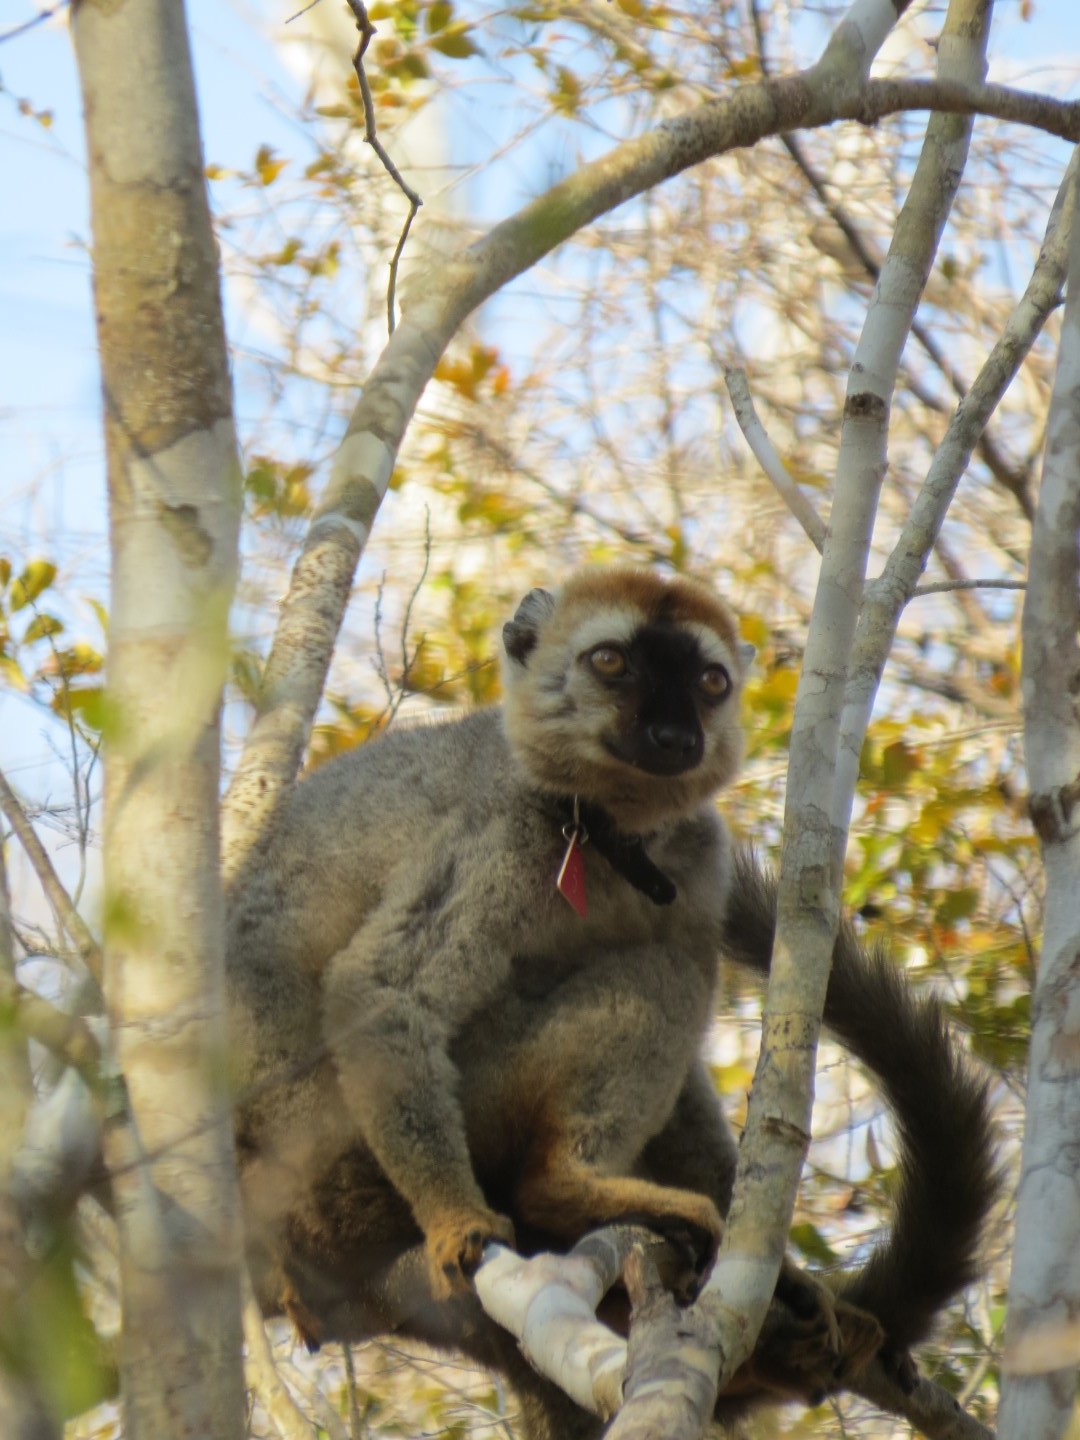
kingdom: Animalia
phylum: Chordata
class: Mammalia
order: Primates
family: Lemuridae
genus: Eulemur
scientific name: Eulemur rufifrons
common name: Red-fronted brown lemur
